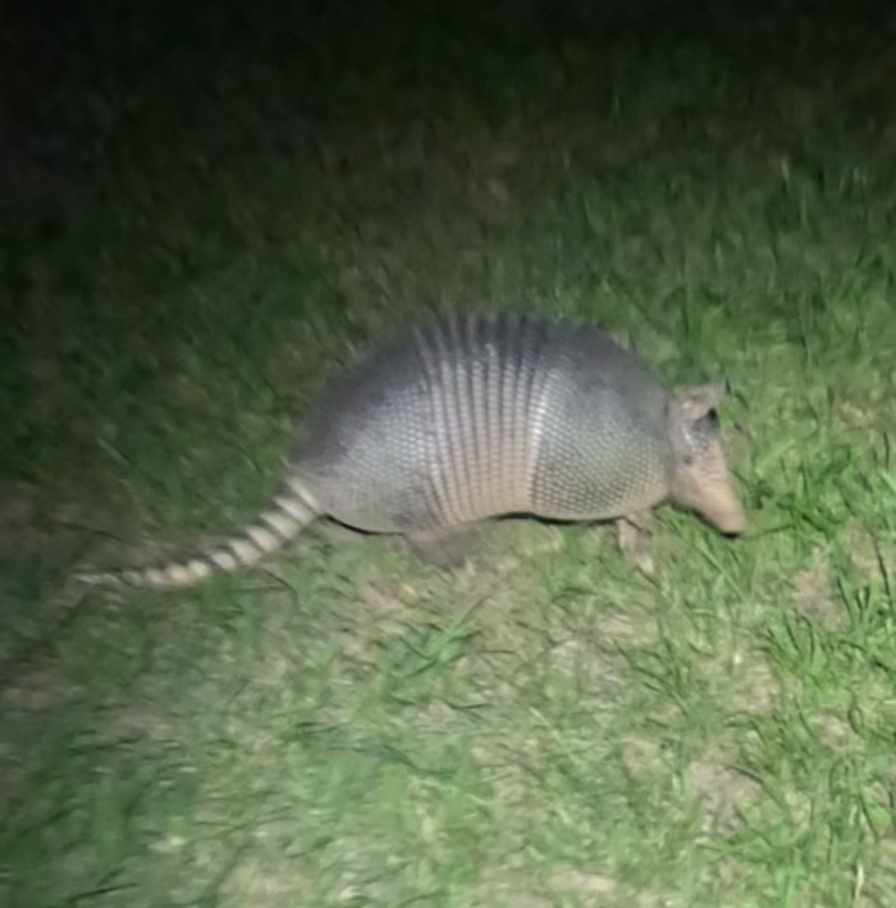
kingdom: Animalia
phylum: Chordata
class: Mammalia
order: Cingulata
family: Dasypodidae
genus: Dasypus
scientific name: Dasypus novemcinctus
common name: Nine-banded armadillo
